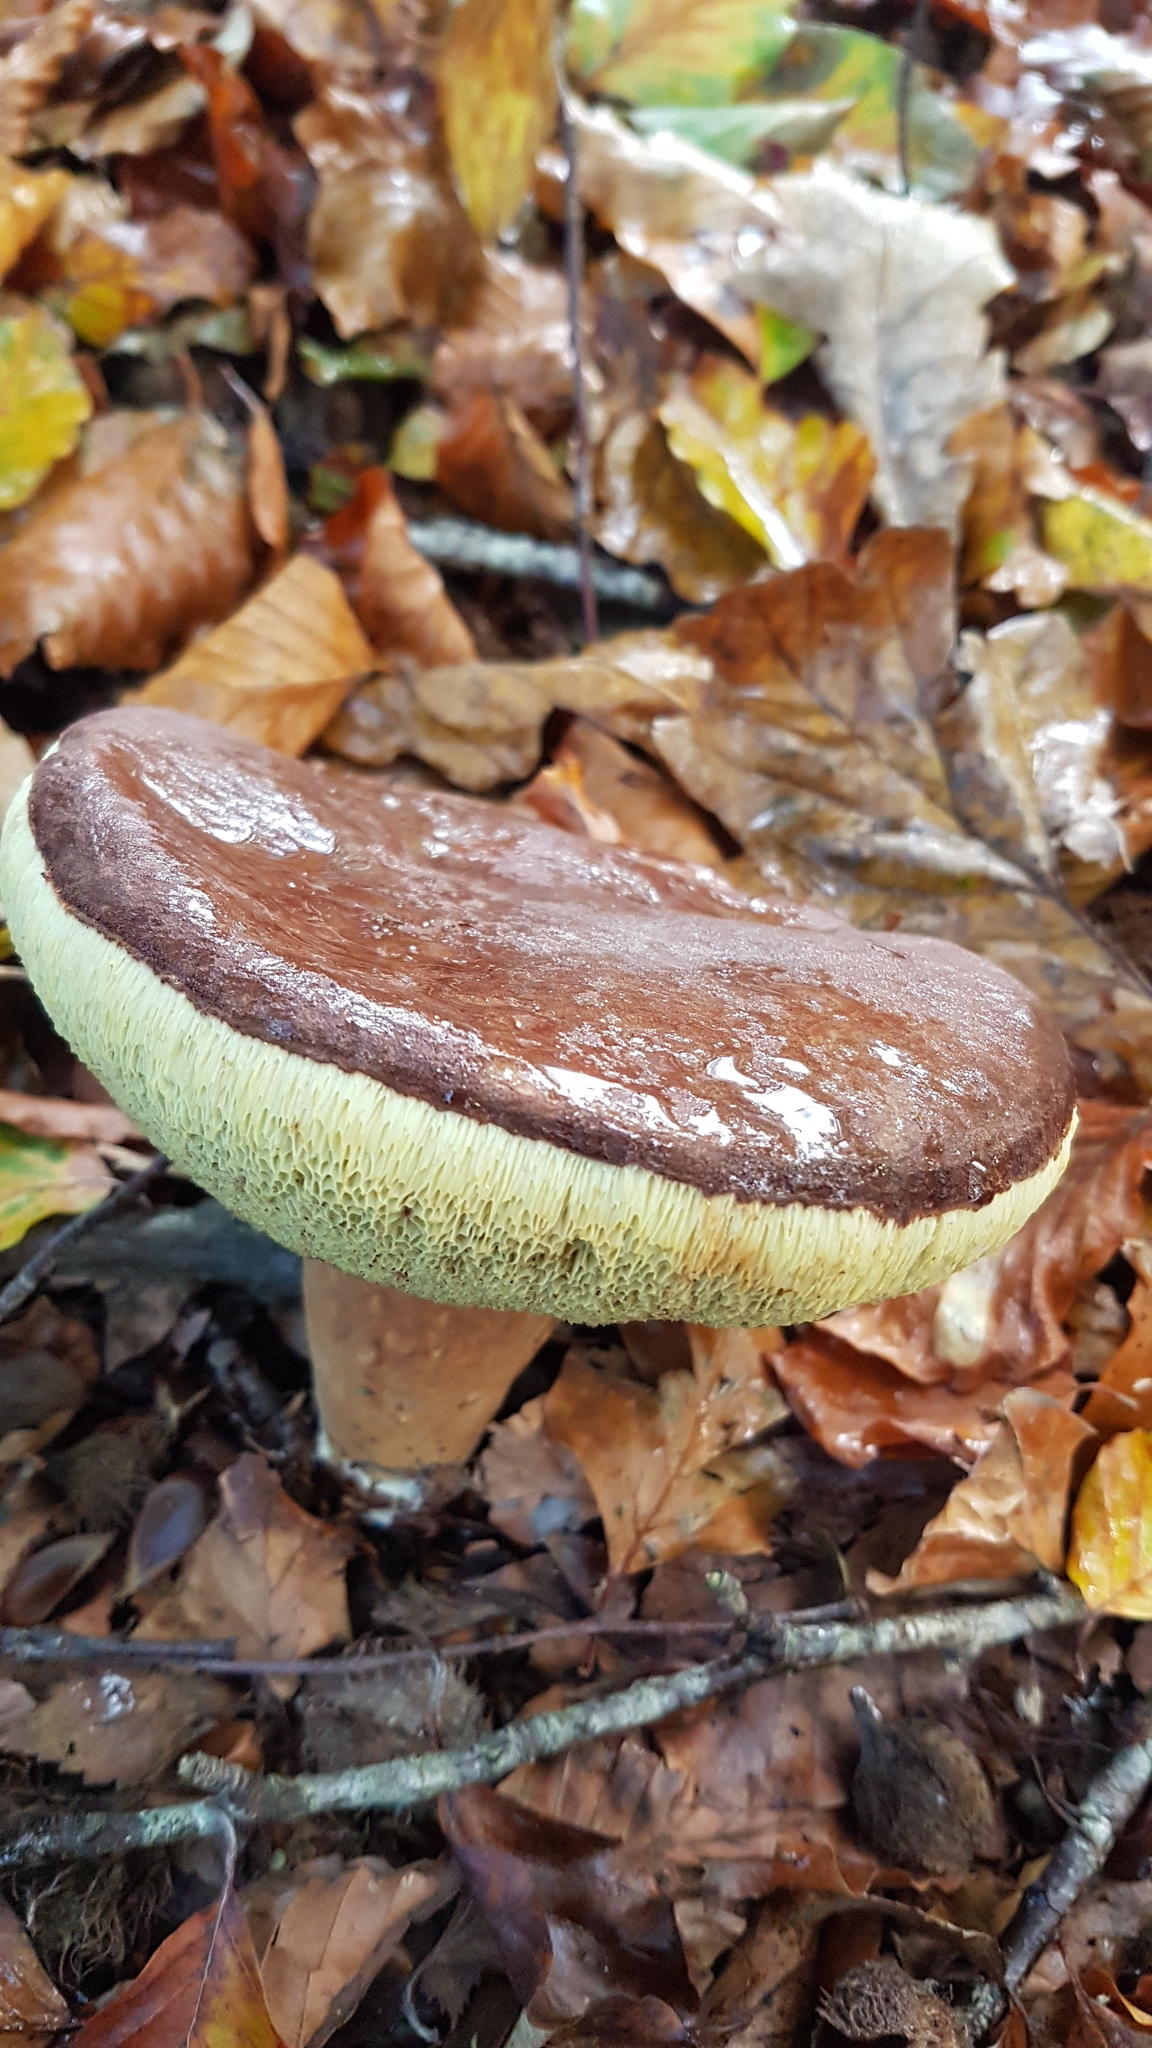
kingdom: Fungi
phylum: Basidiomycota
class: Agaricomycetes
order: Boletales
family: Boletaceae
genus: Imleria
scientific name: Imleria badia
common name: Bay bolete
